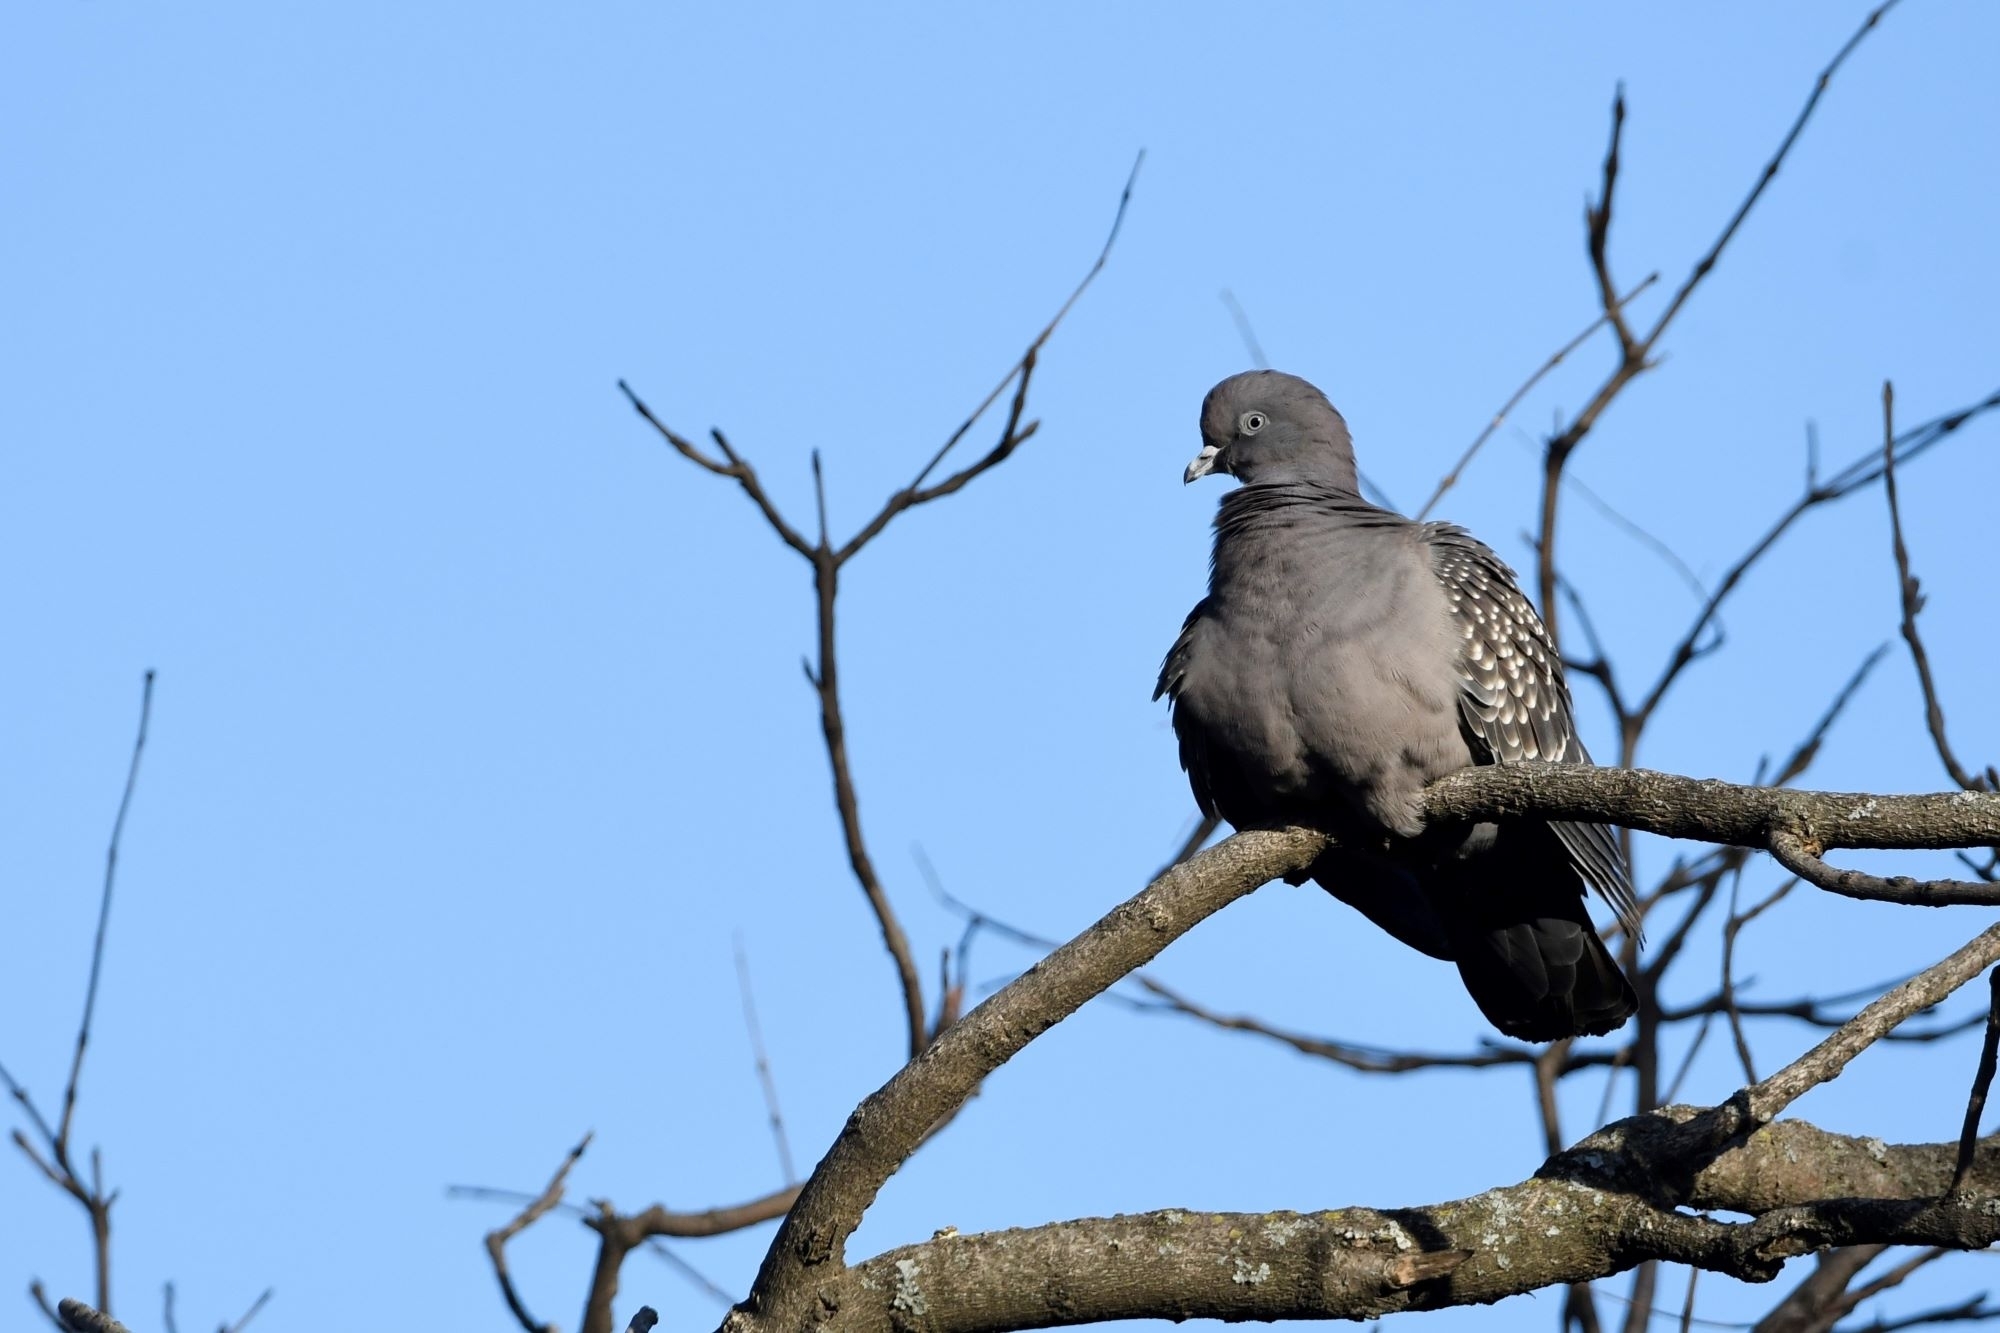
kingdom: Animalia
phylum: Chordata
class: Aves
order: Columbiformes
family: Columbidae
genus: Patagioenas
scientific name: Patagioenas maculosa
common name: Spot-winged pigeon
